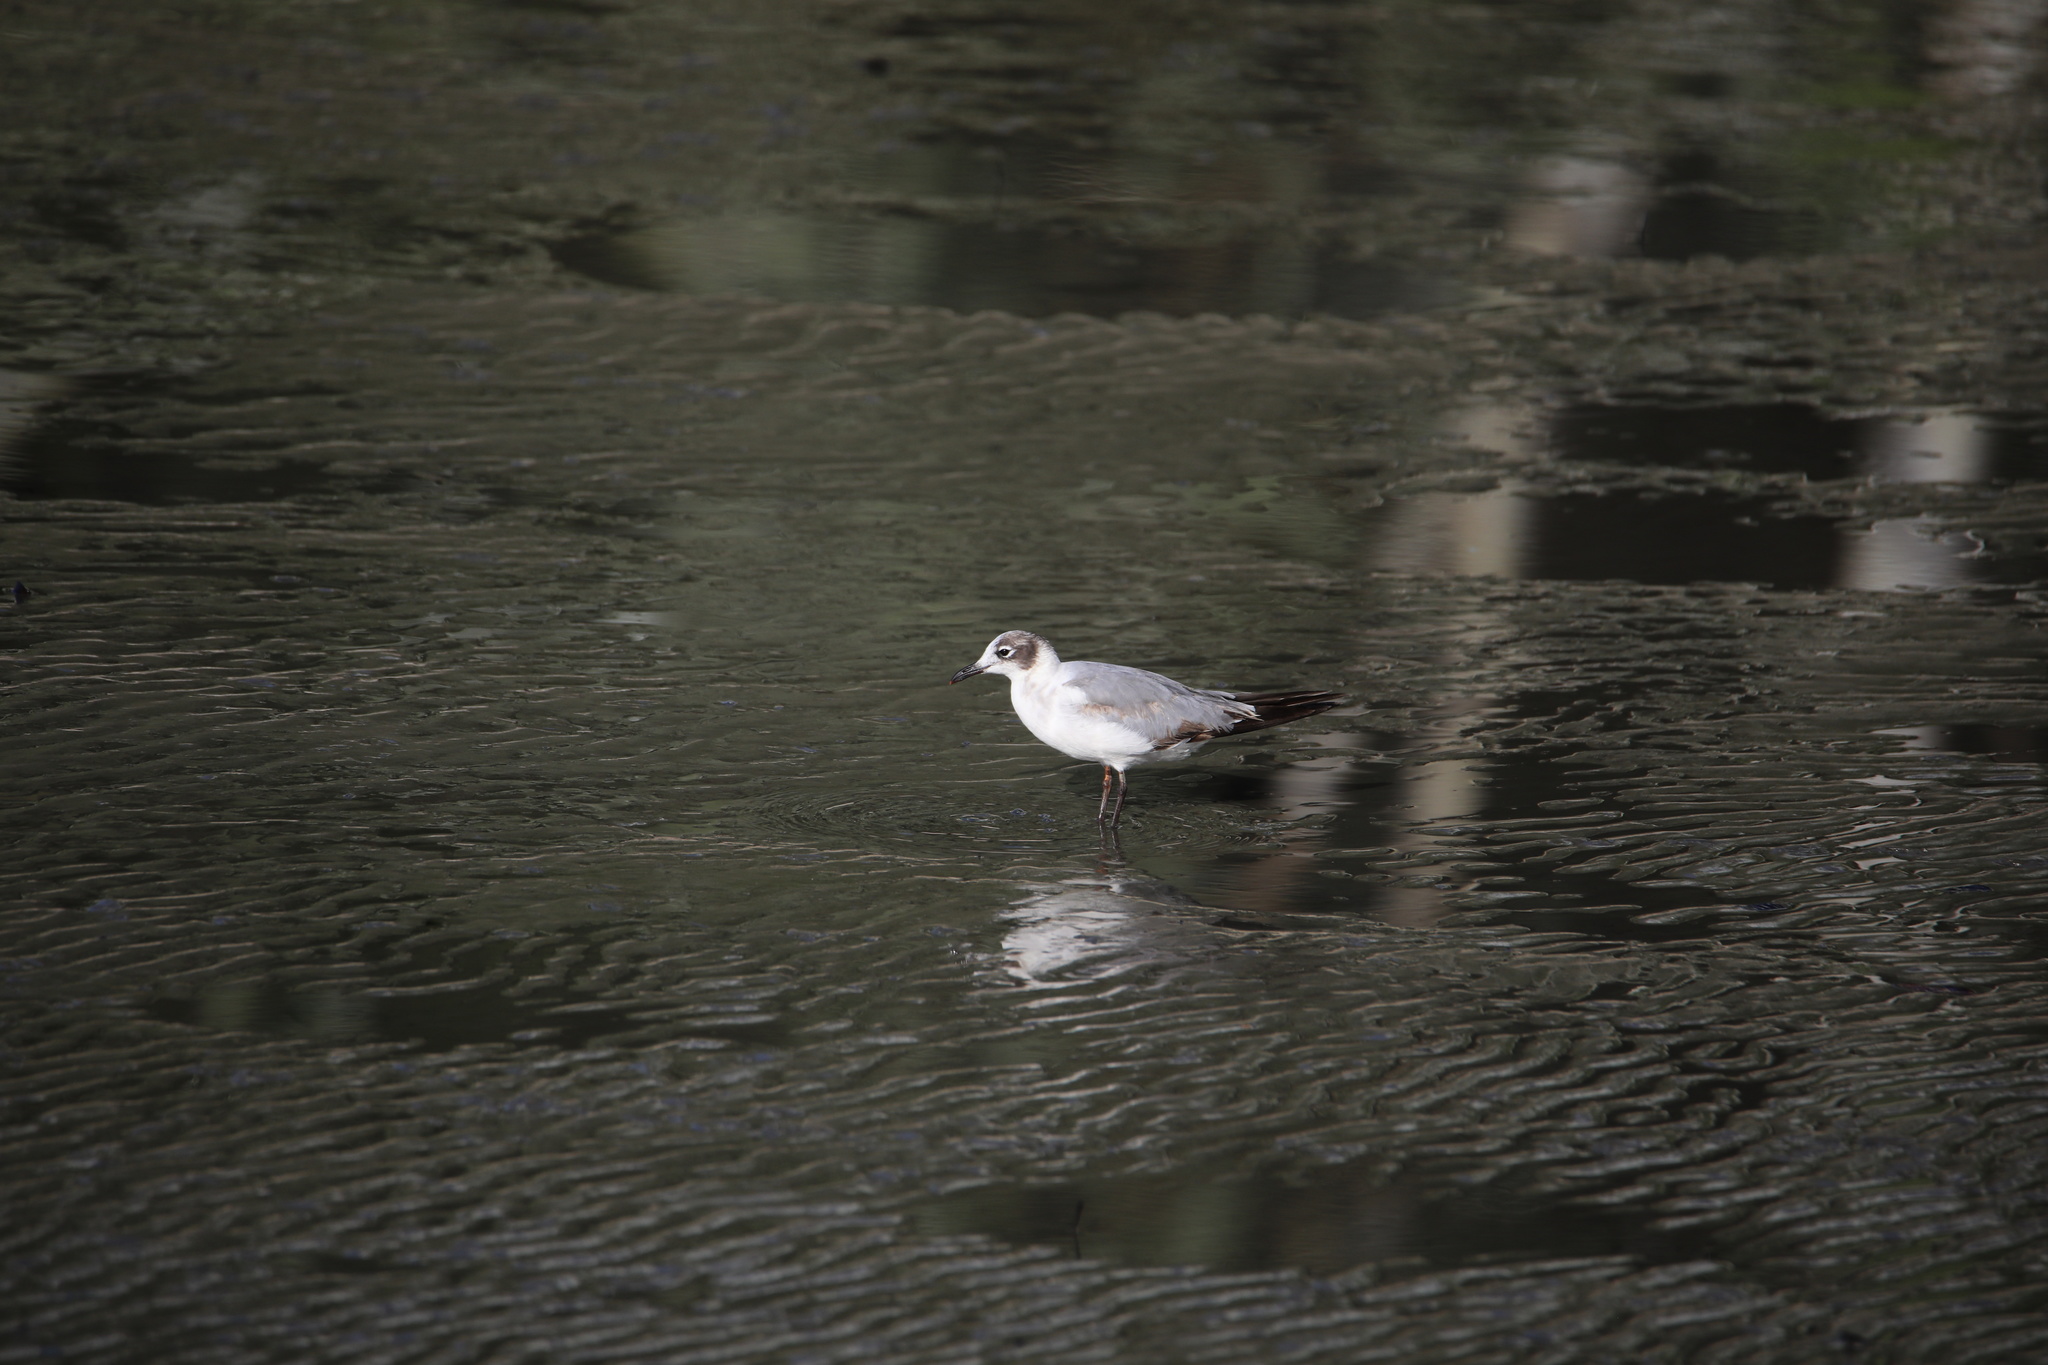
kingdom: Animalia
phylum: Chordata
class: Aves
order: Charadriiformes
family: Laridae
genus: Leucophaeus
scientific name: Leucophaeus pipixcan
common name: Franklin's gull
